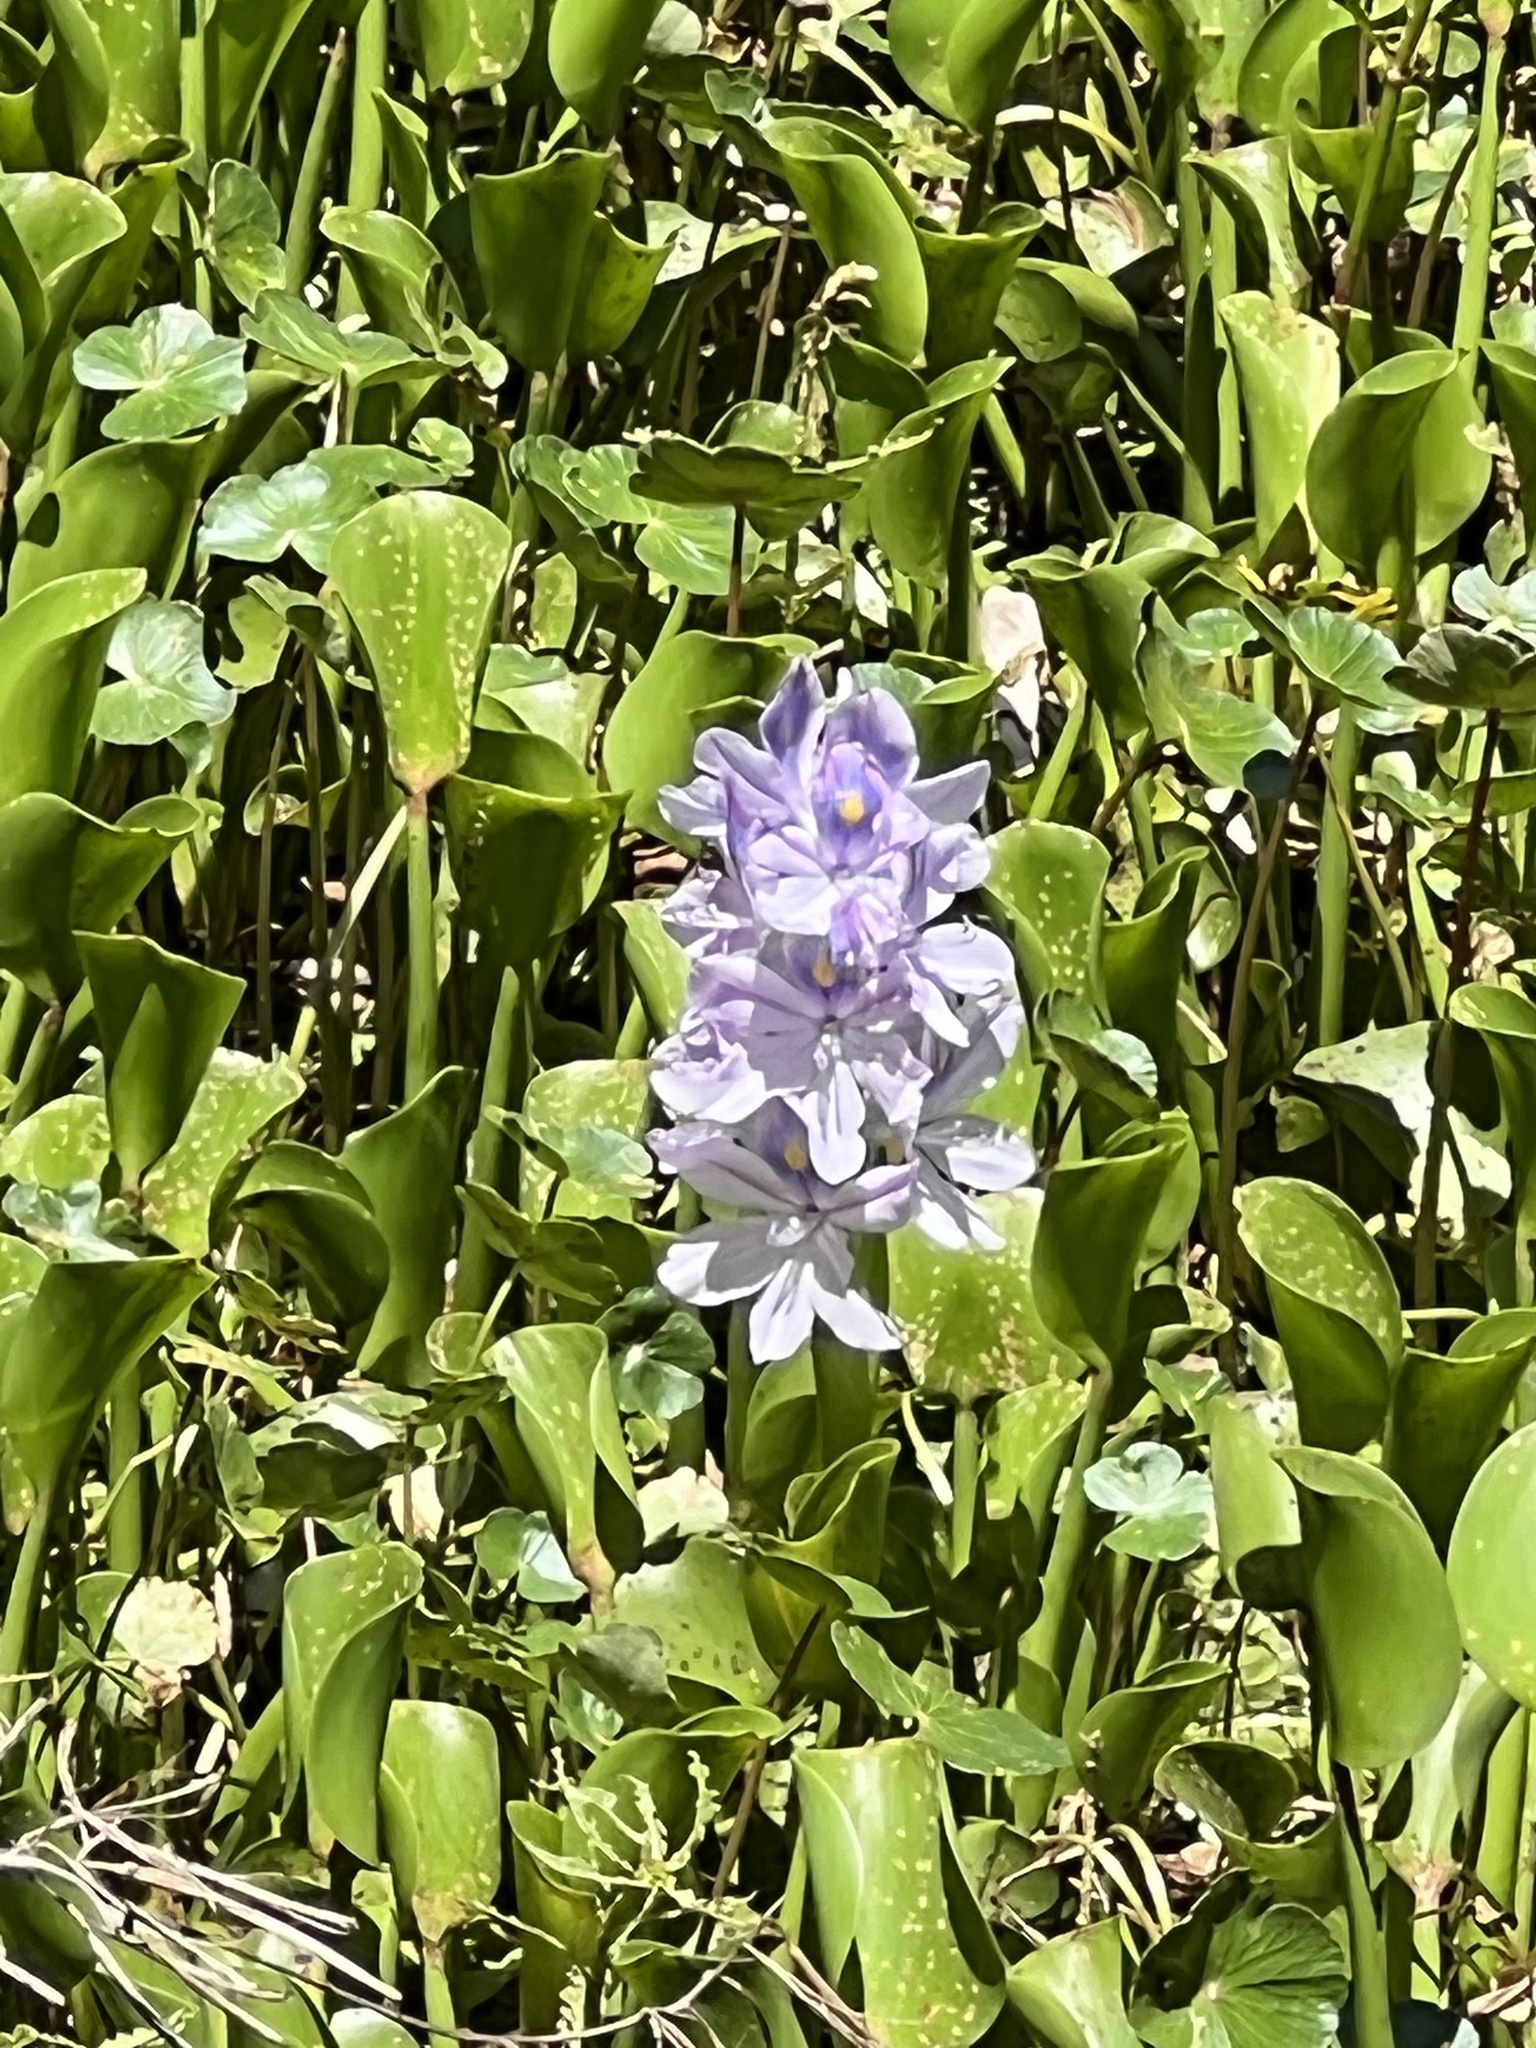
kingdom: Plantae
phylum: Tracheophyta
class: Liliopsida
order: Commelinales
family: Pontederiaceae
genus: Pontederia
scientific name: Pontederia crassipes
